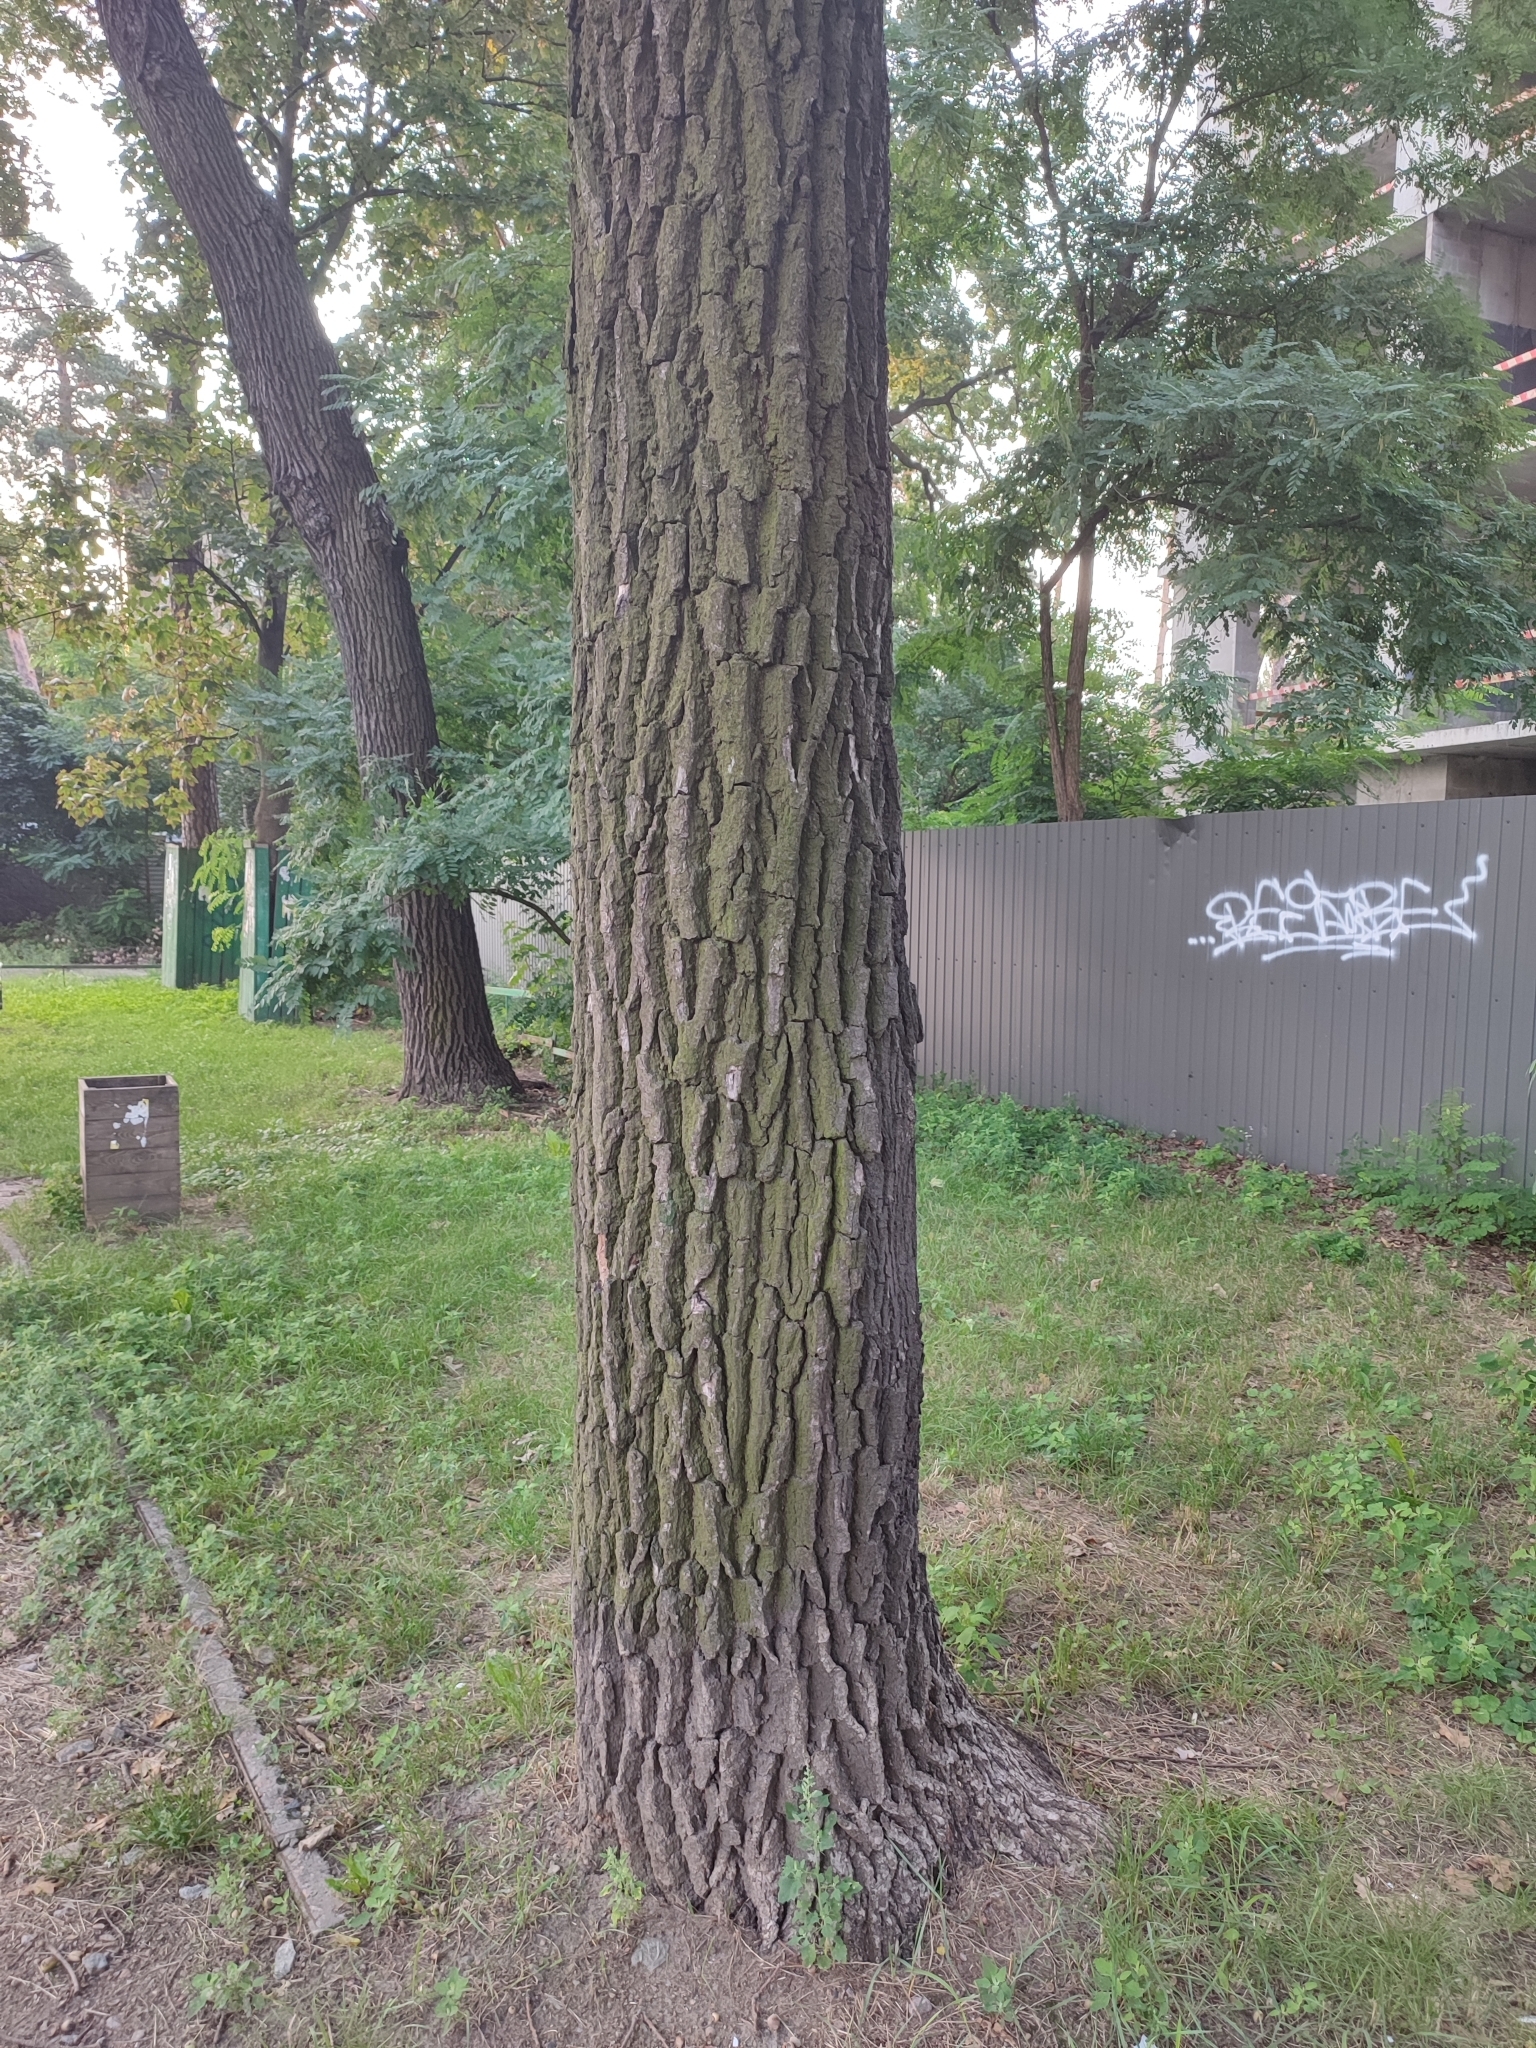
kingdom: Plantae
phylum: Tracheophyta
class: Magnoliopsida
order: Fagales
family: Fagaceae
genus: Quercus
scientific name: Quercus robur
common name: Pedunculate oak
